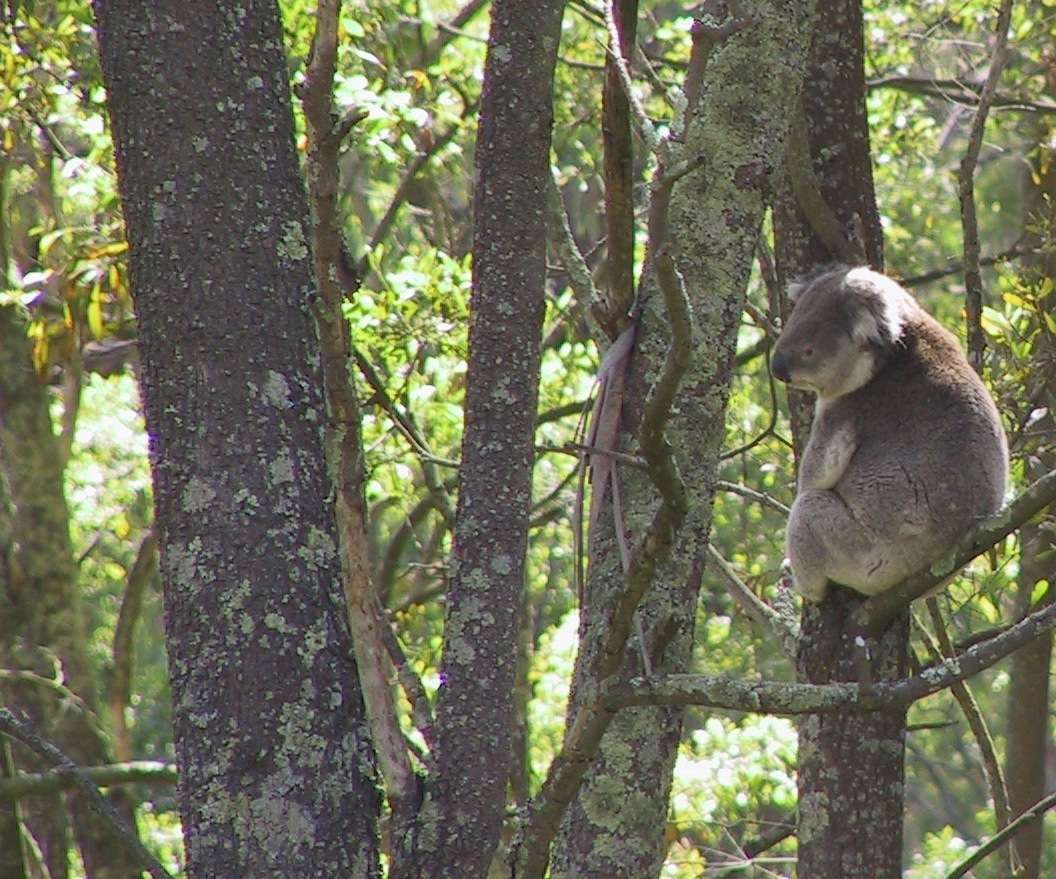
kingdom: Animalia
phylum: Chordata
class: Mammalia
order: Diprotodontia
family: Phascolarctidae
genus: Phascolarctos
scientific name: Phascolarctos cinereus
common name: Koala
